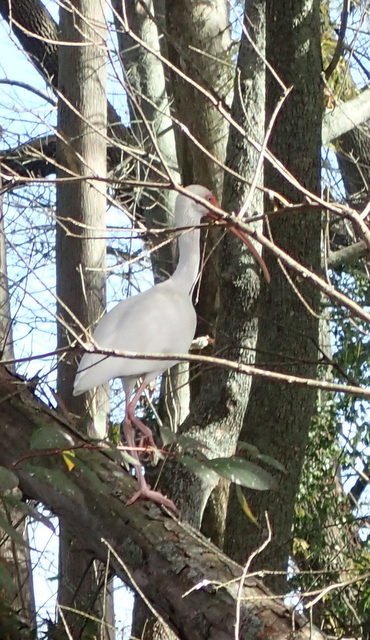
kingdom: Animalia
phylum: Chordata
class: Aves
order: Pelecaniformes
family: Threskiornithidae
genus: Eudocimus
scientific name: Eudocimus albus
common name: White ibis
